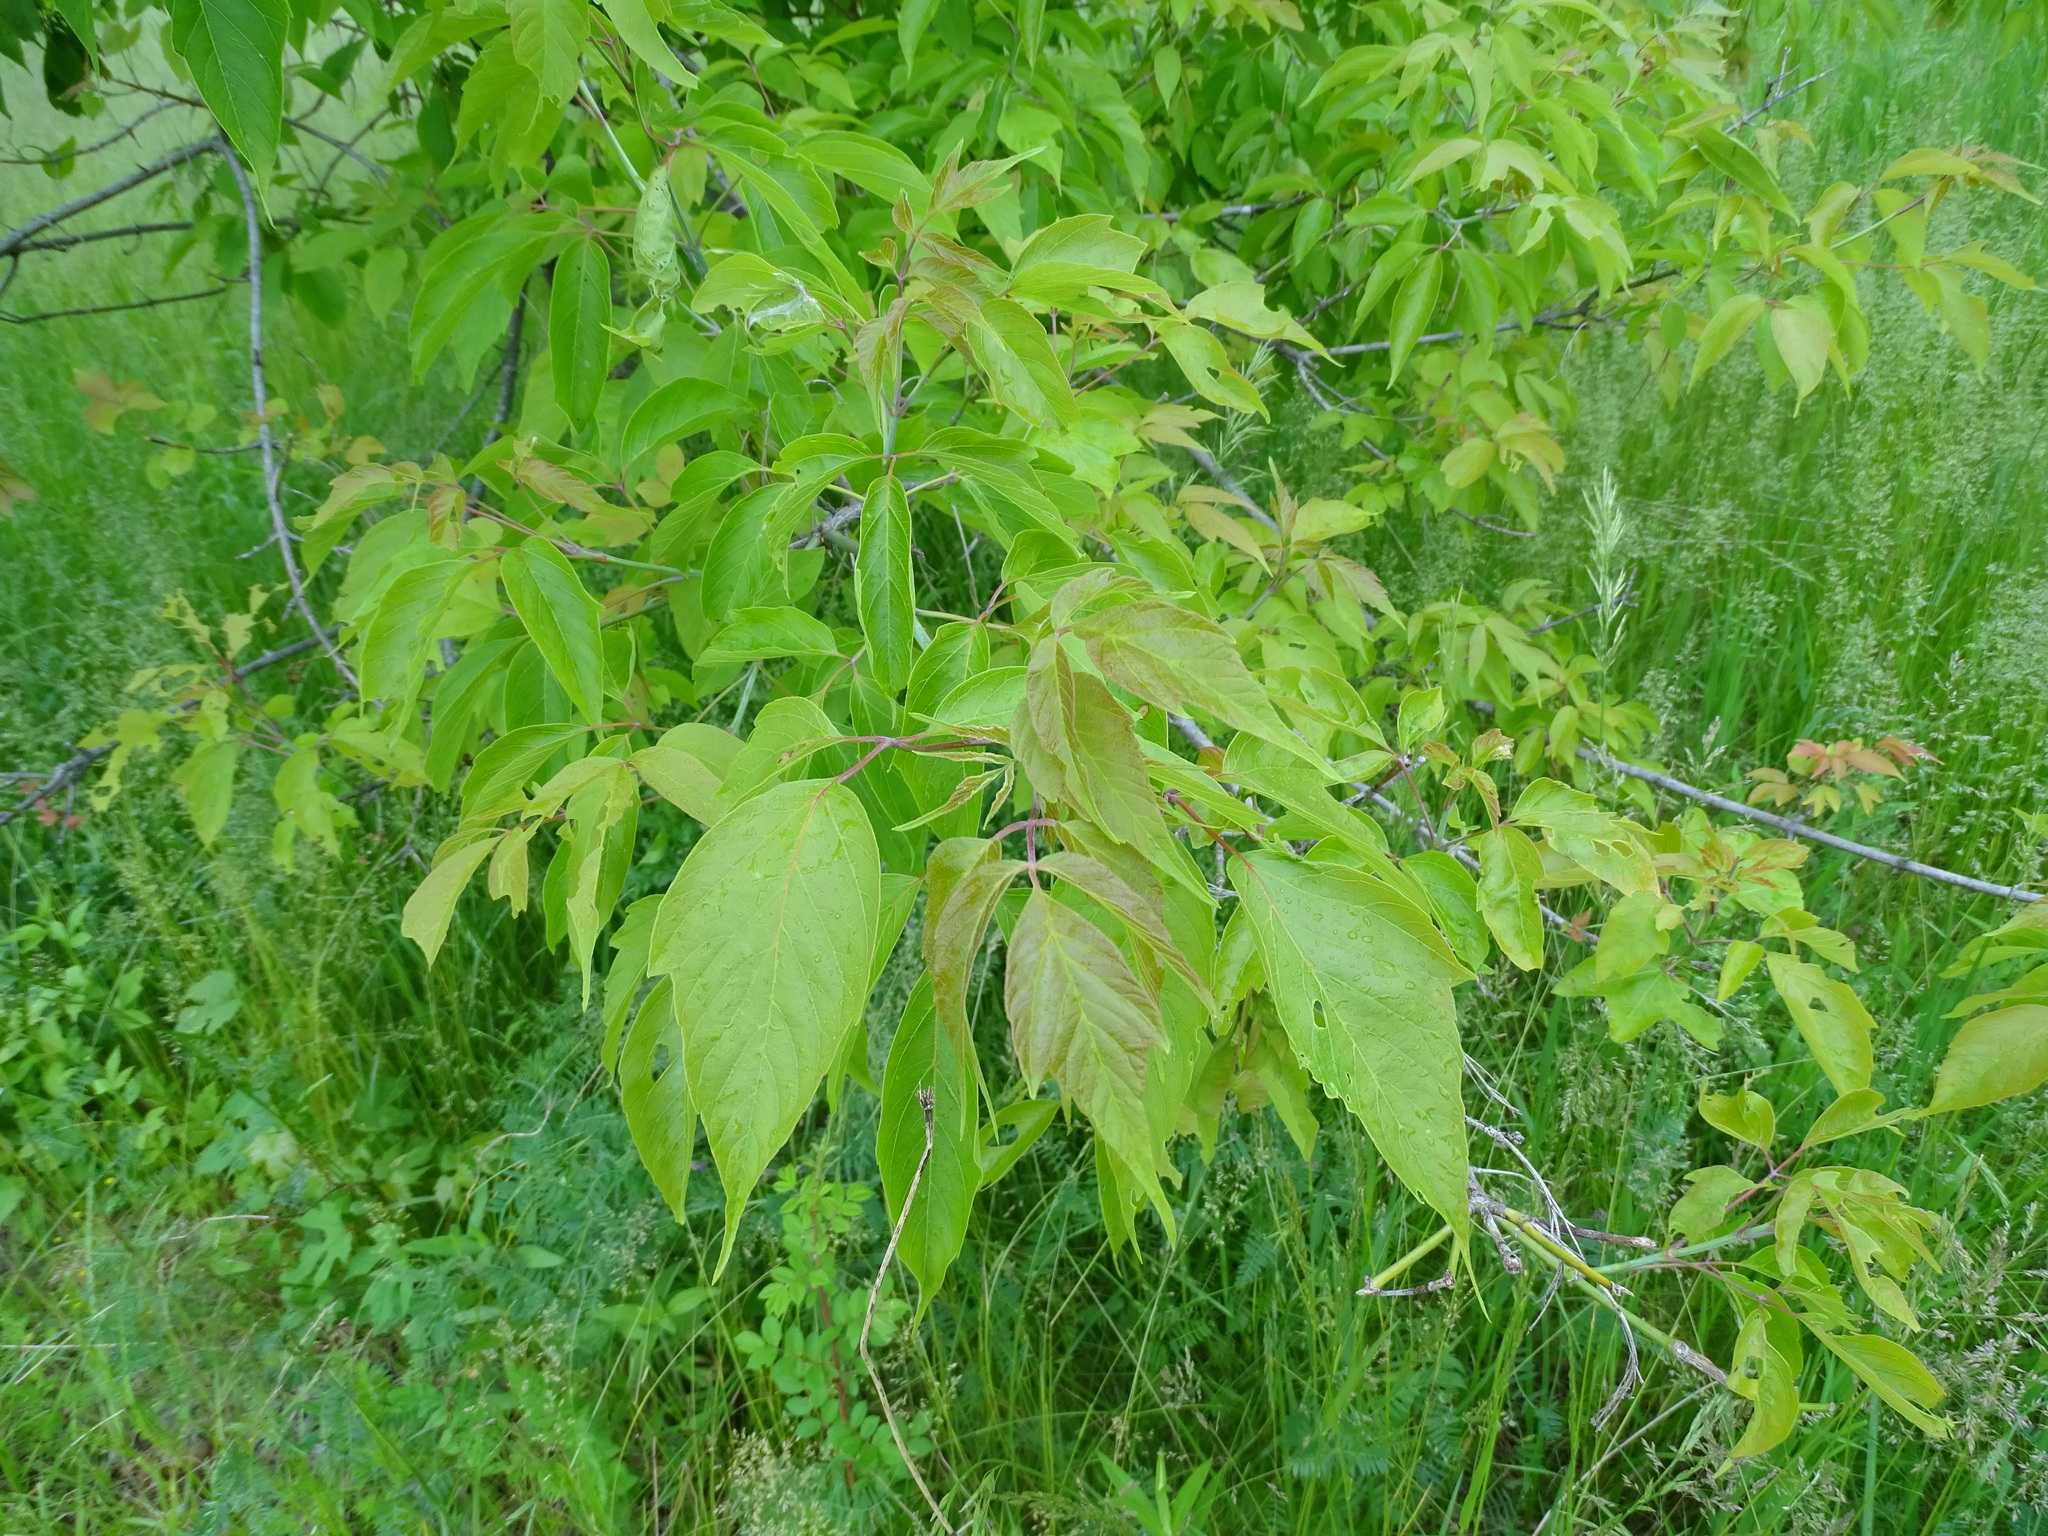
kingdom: Plantae
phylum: Tracheophyta
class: Magnoliopsida
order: Sapindales
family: Sapindaceae
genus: Acer
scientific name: Acer negundo
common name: Ashleaf maple
